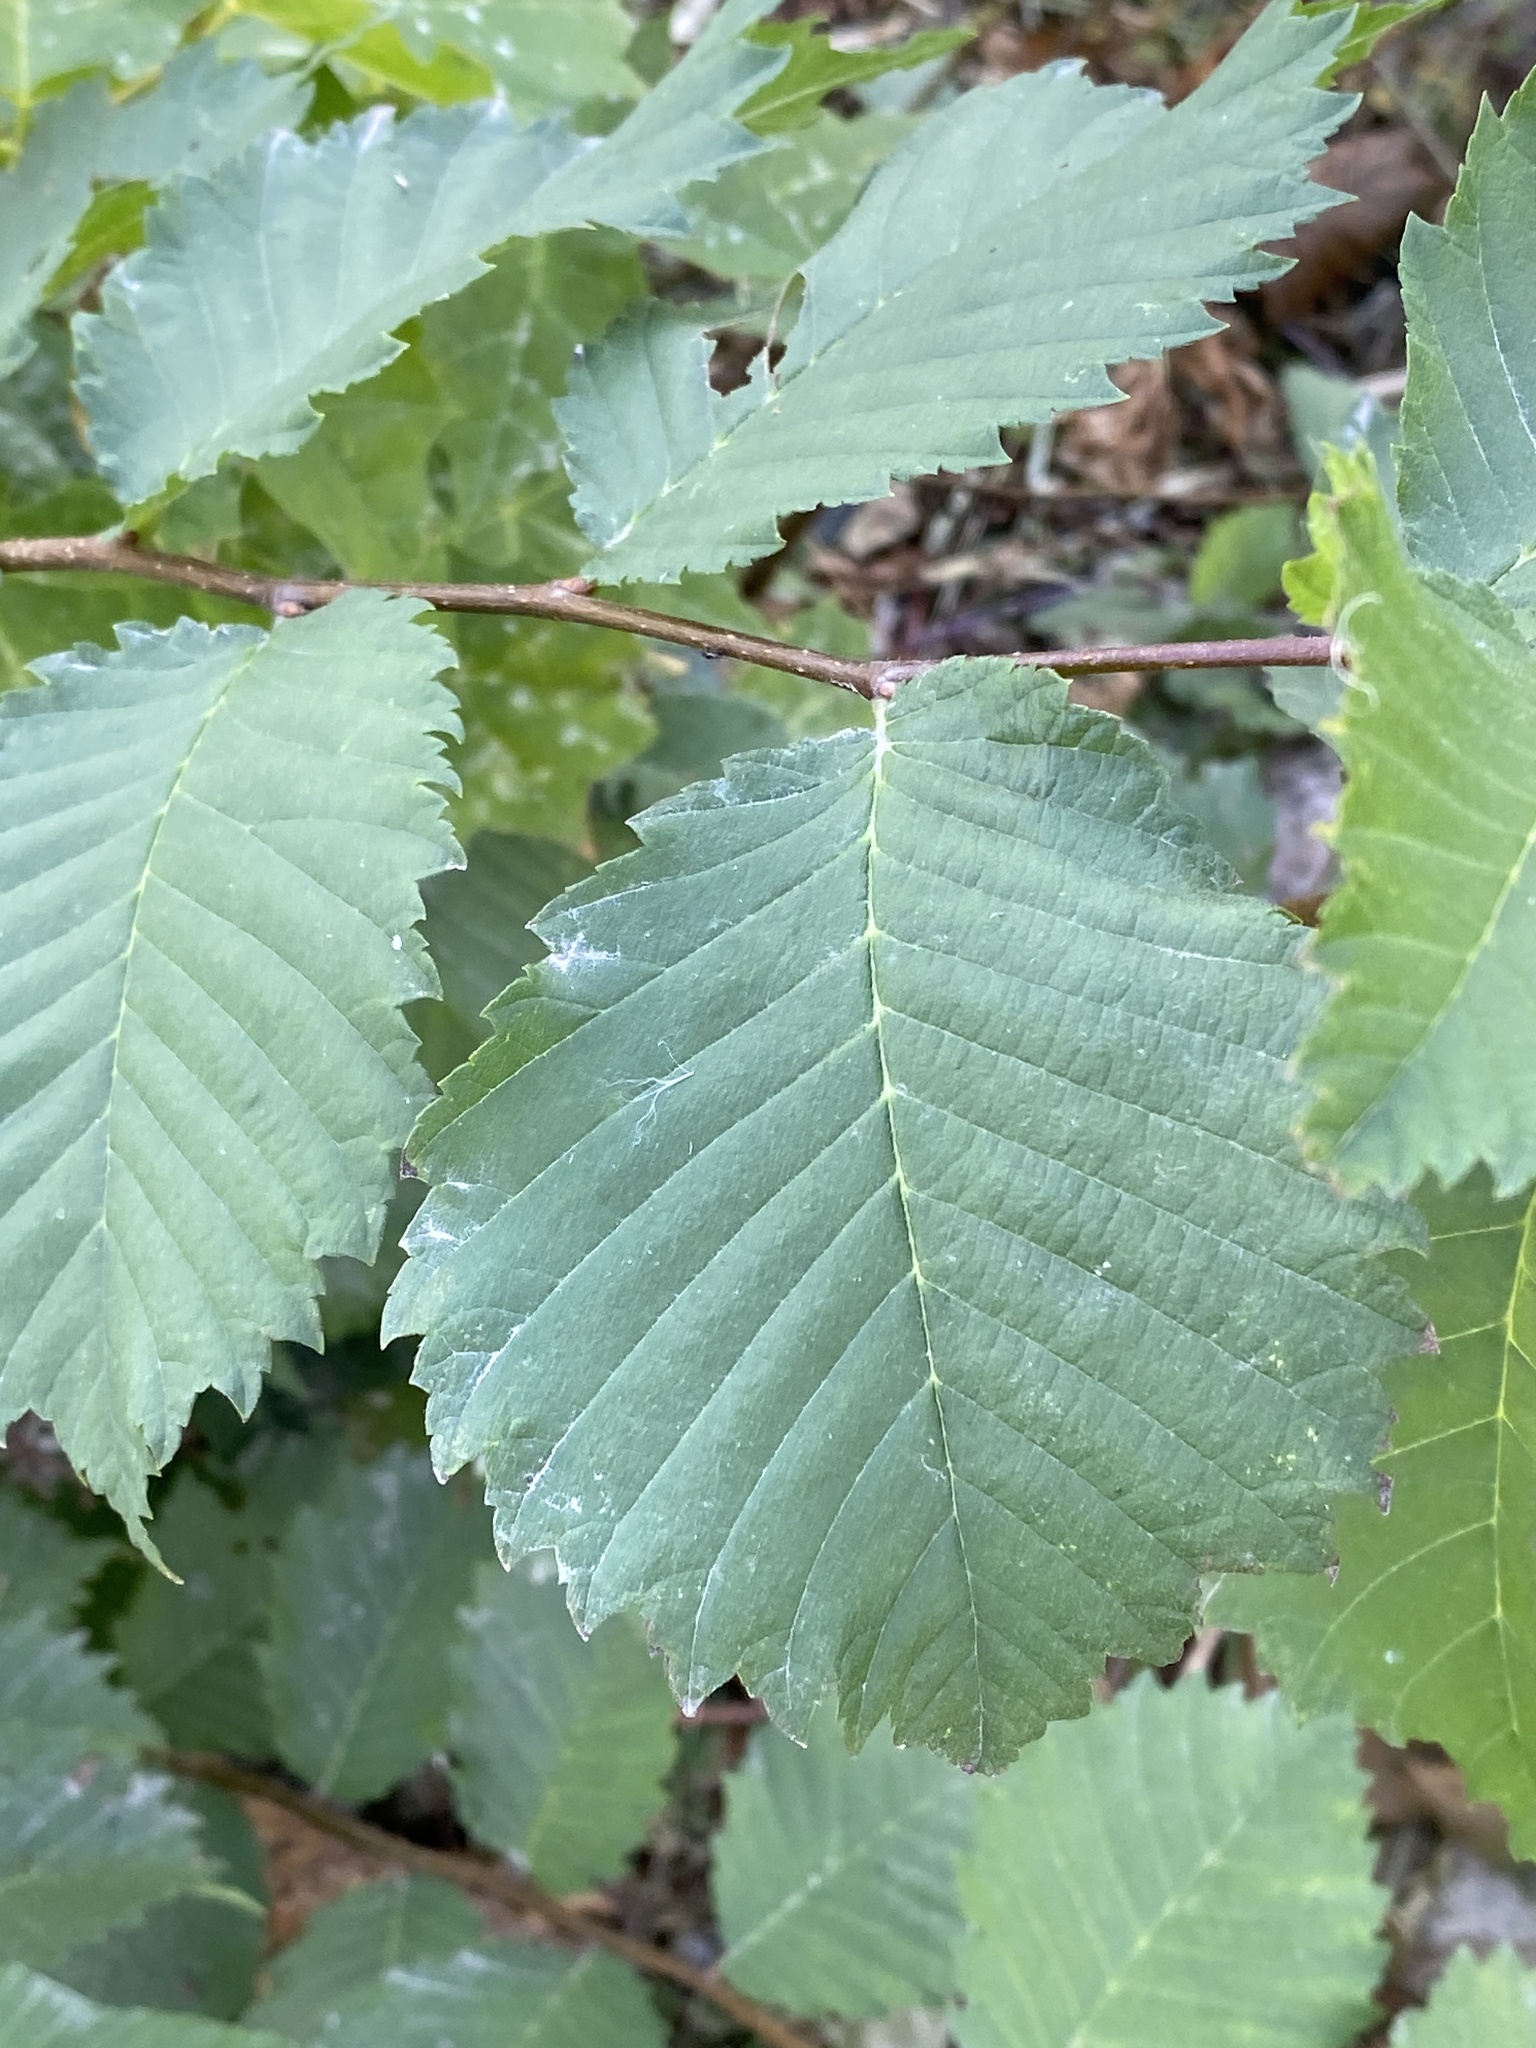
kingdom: Plantae
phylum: Tracheophyta
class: Magnoliopsida
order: Rosales
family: Ulmaceae
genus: Ulmus
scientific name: Ulmus laevis
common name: European white-elm
